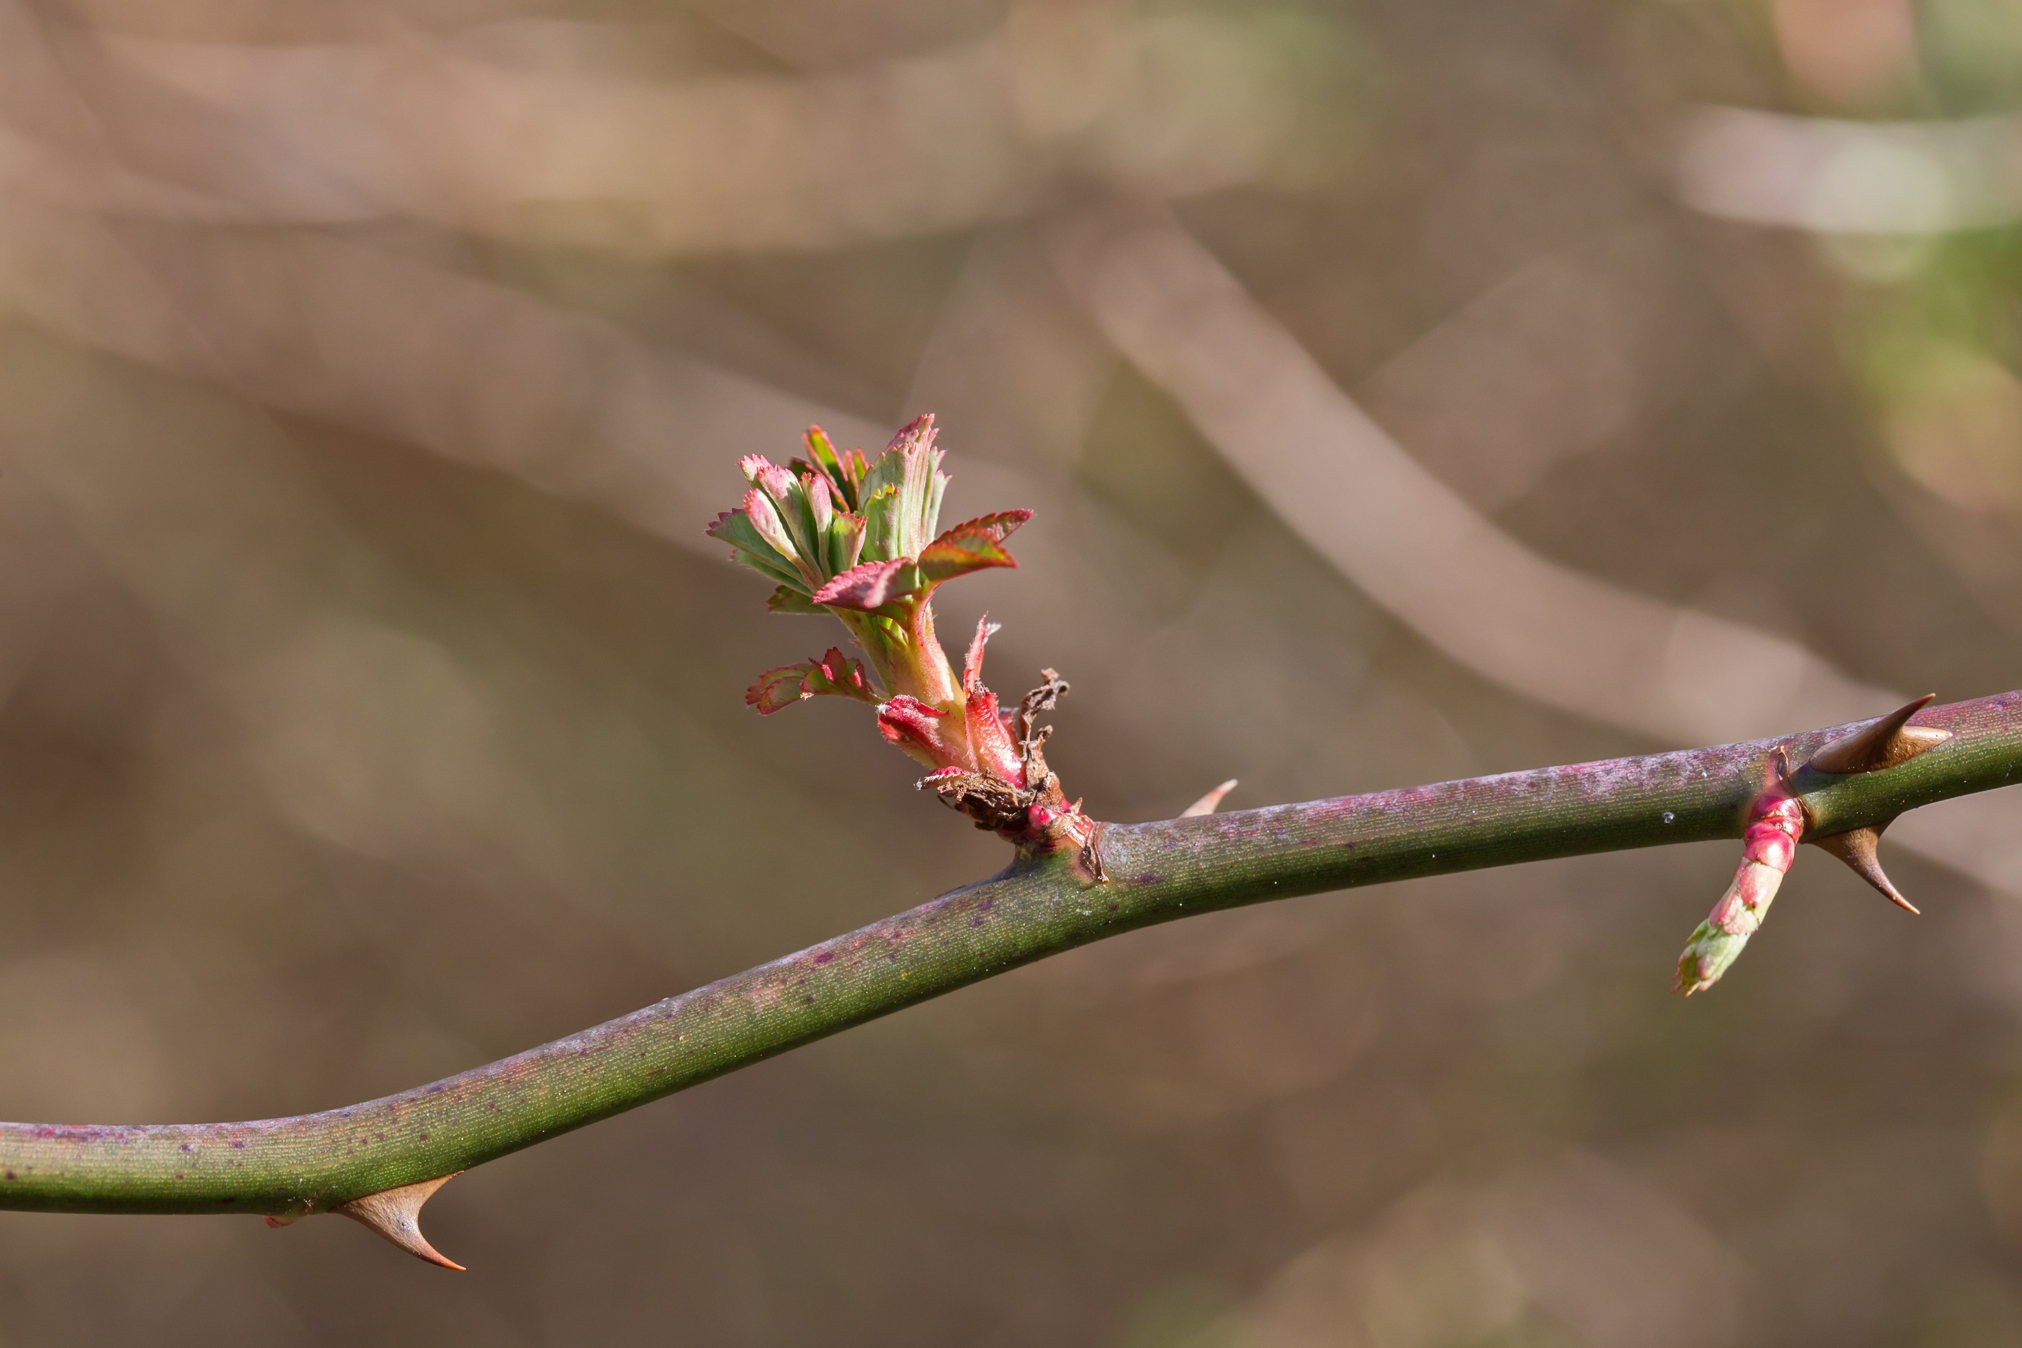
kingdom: Plantae
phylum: Tracheophyta
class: Magnoliopsida
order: Rosales
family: Rosaceae
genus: Rosa
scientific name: Rosa multiflora
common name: Multiflora rose
